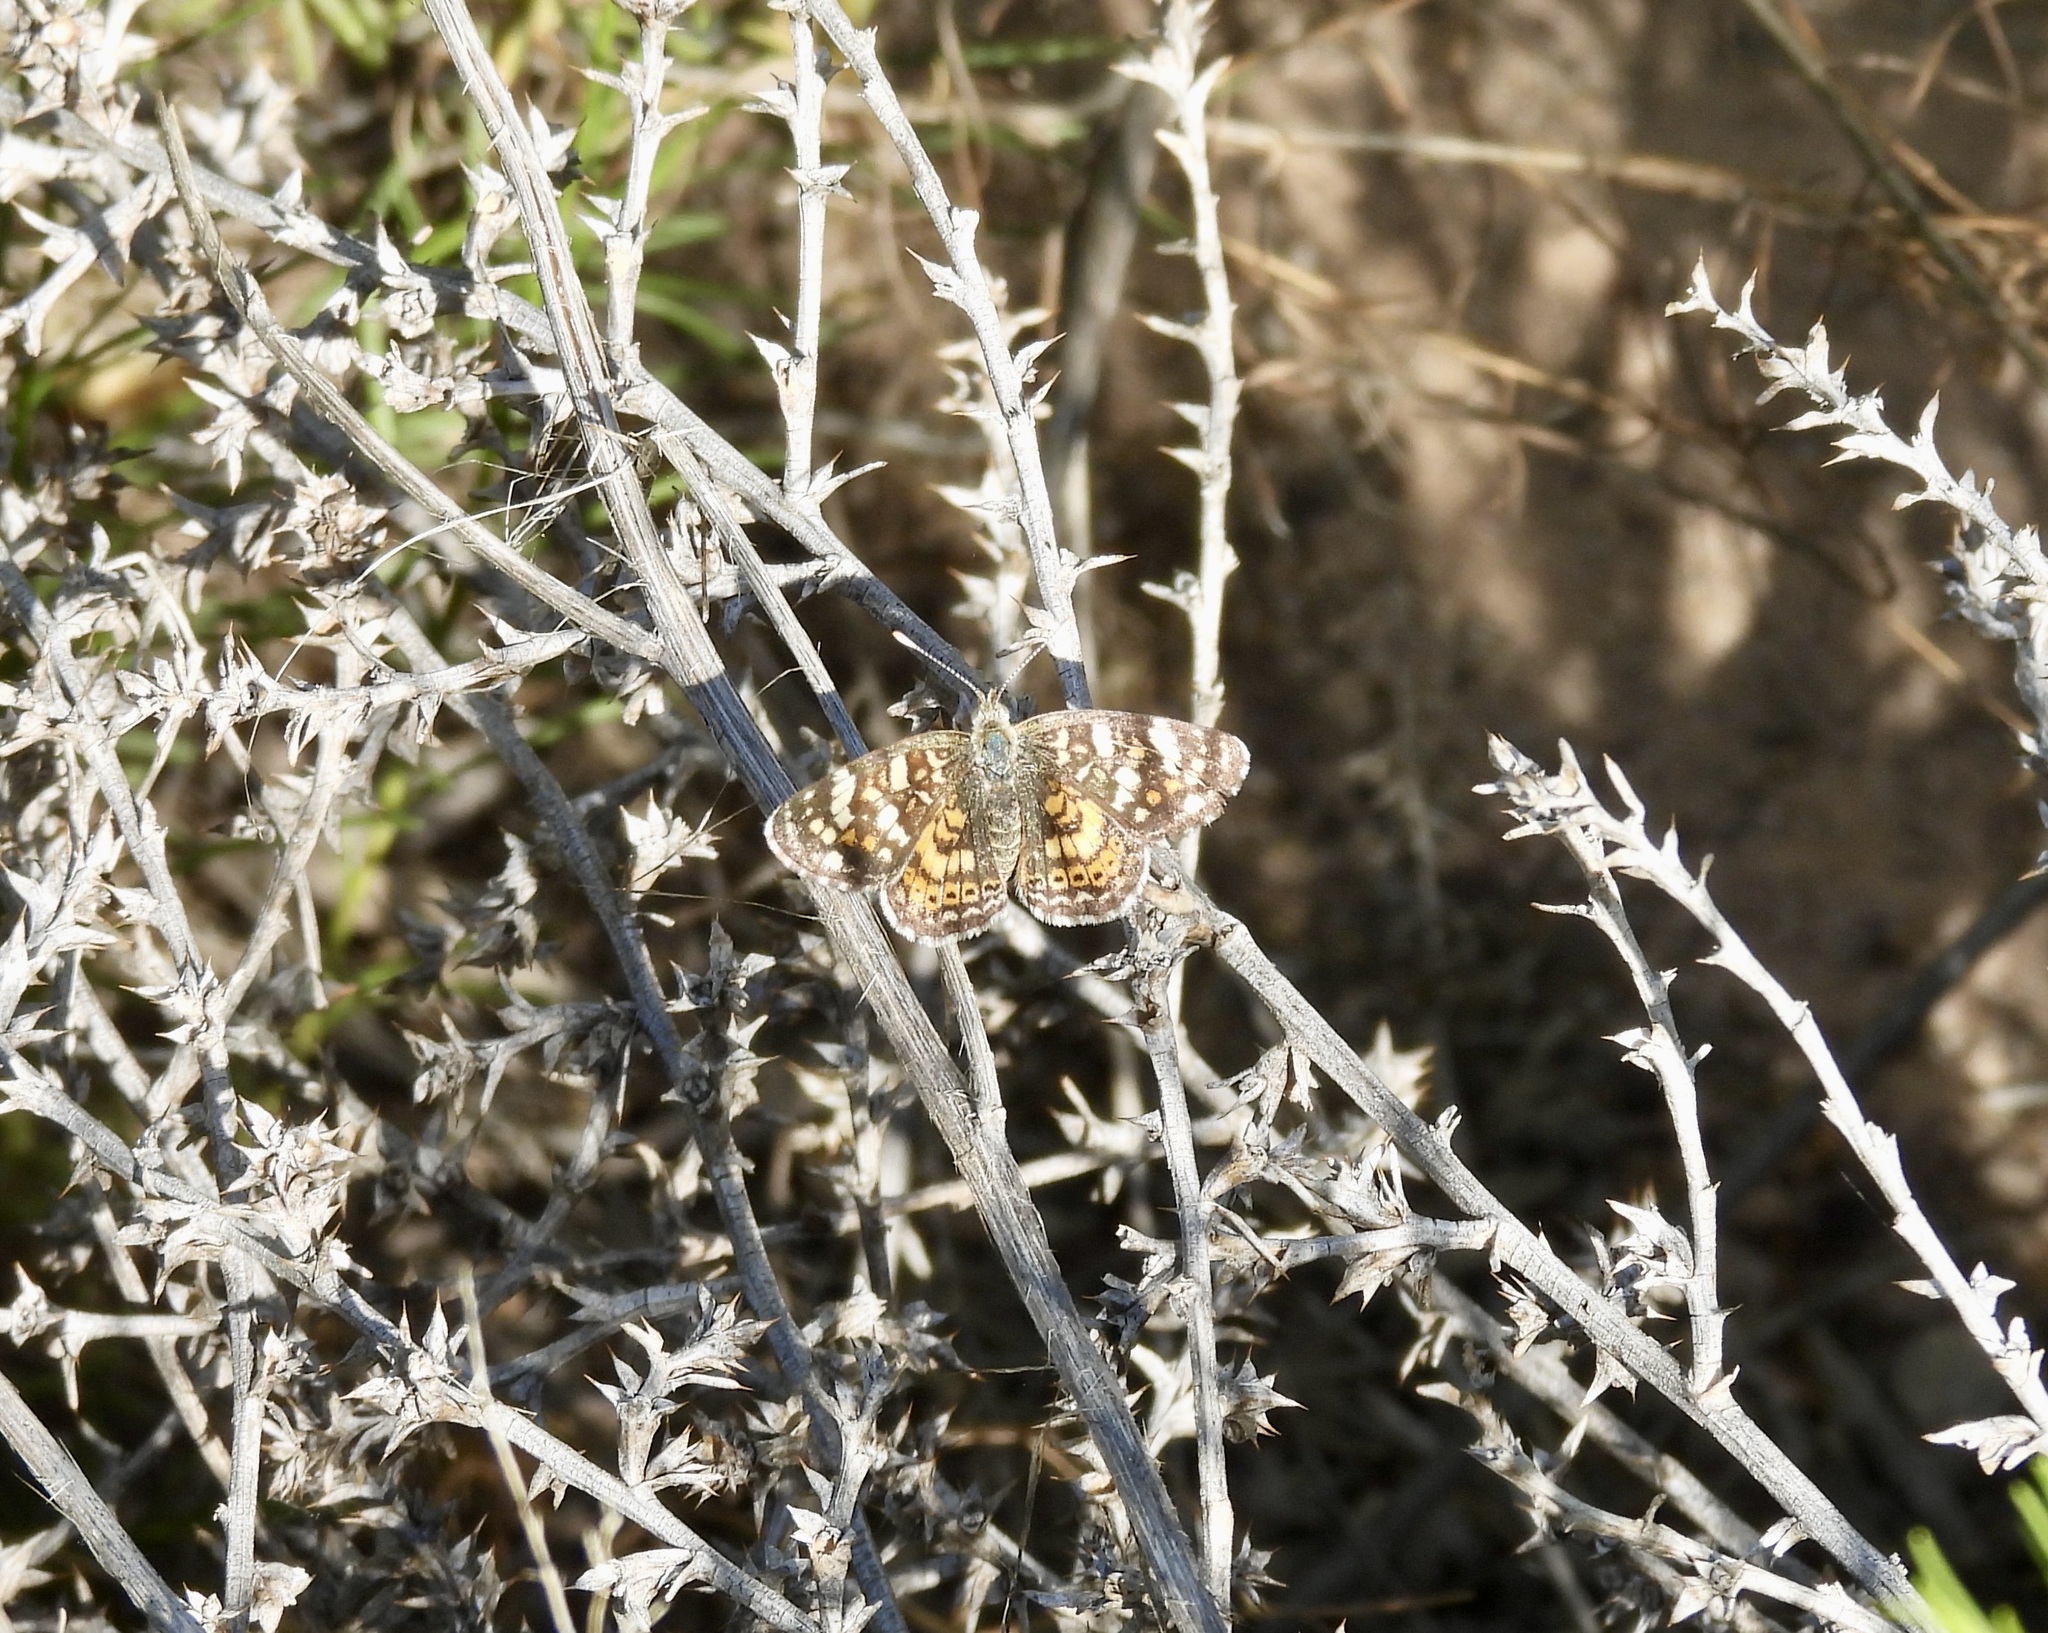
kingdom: Animalia
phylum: Arthropoda
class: Insecta
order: Lepidoptera
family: Nymphalidae
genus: Phyciodes
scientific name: Phyciodes picta
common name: Painted crescent
